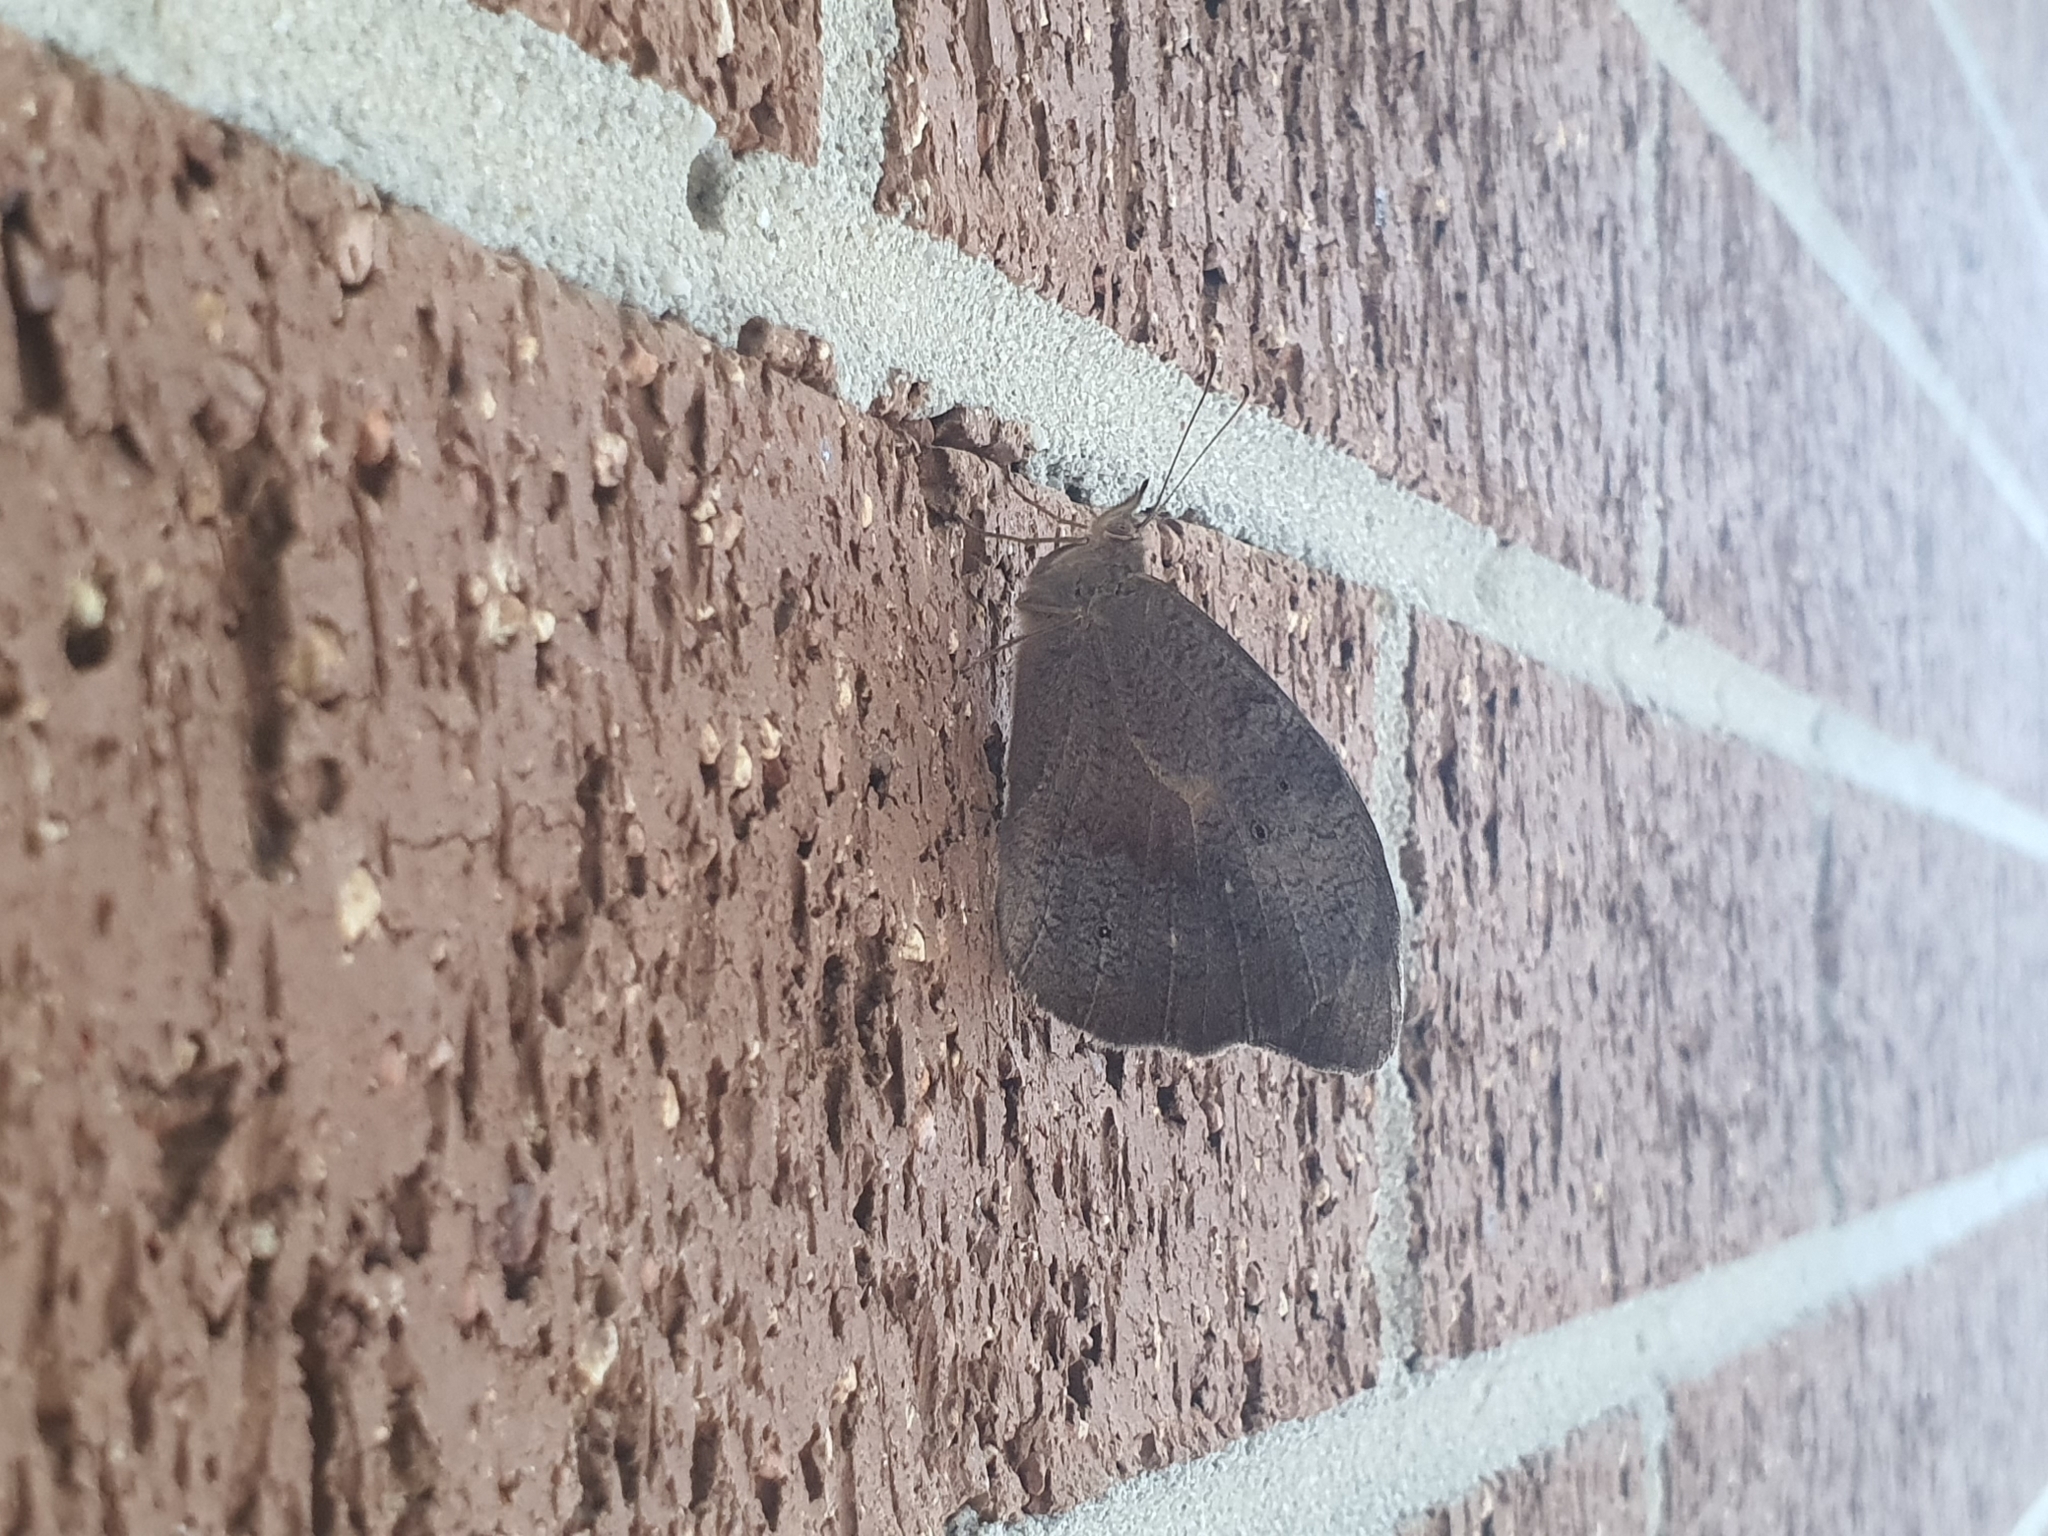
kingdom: Animalia
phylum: Arthropoda
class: Insecta
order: Lepidoptera
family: Nymphalidae
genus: Heteronympha
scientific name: Heteronympha merope
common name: Common brown
